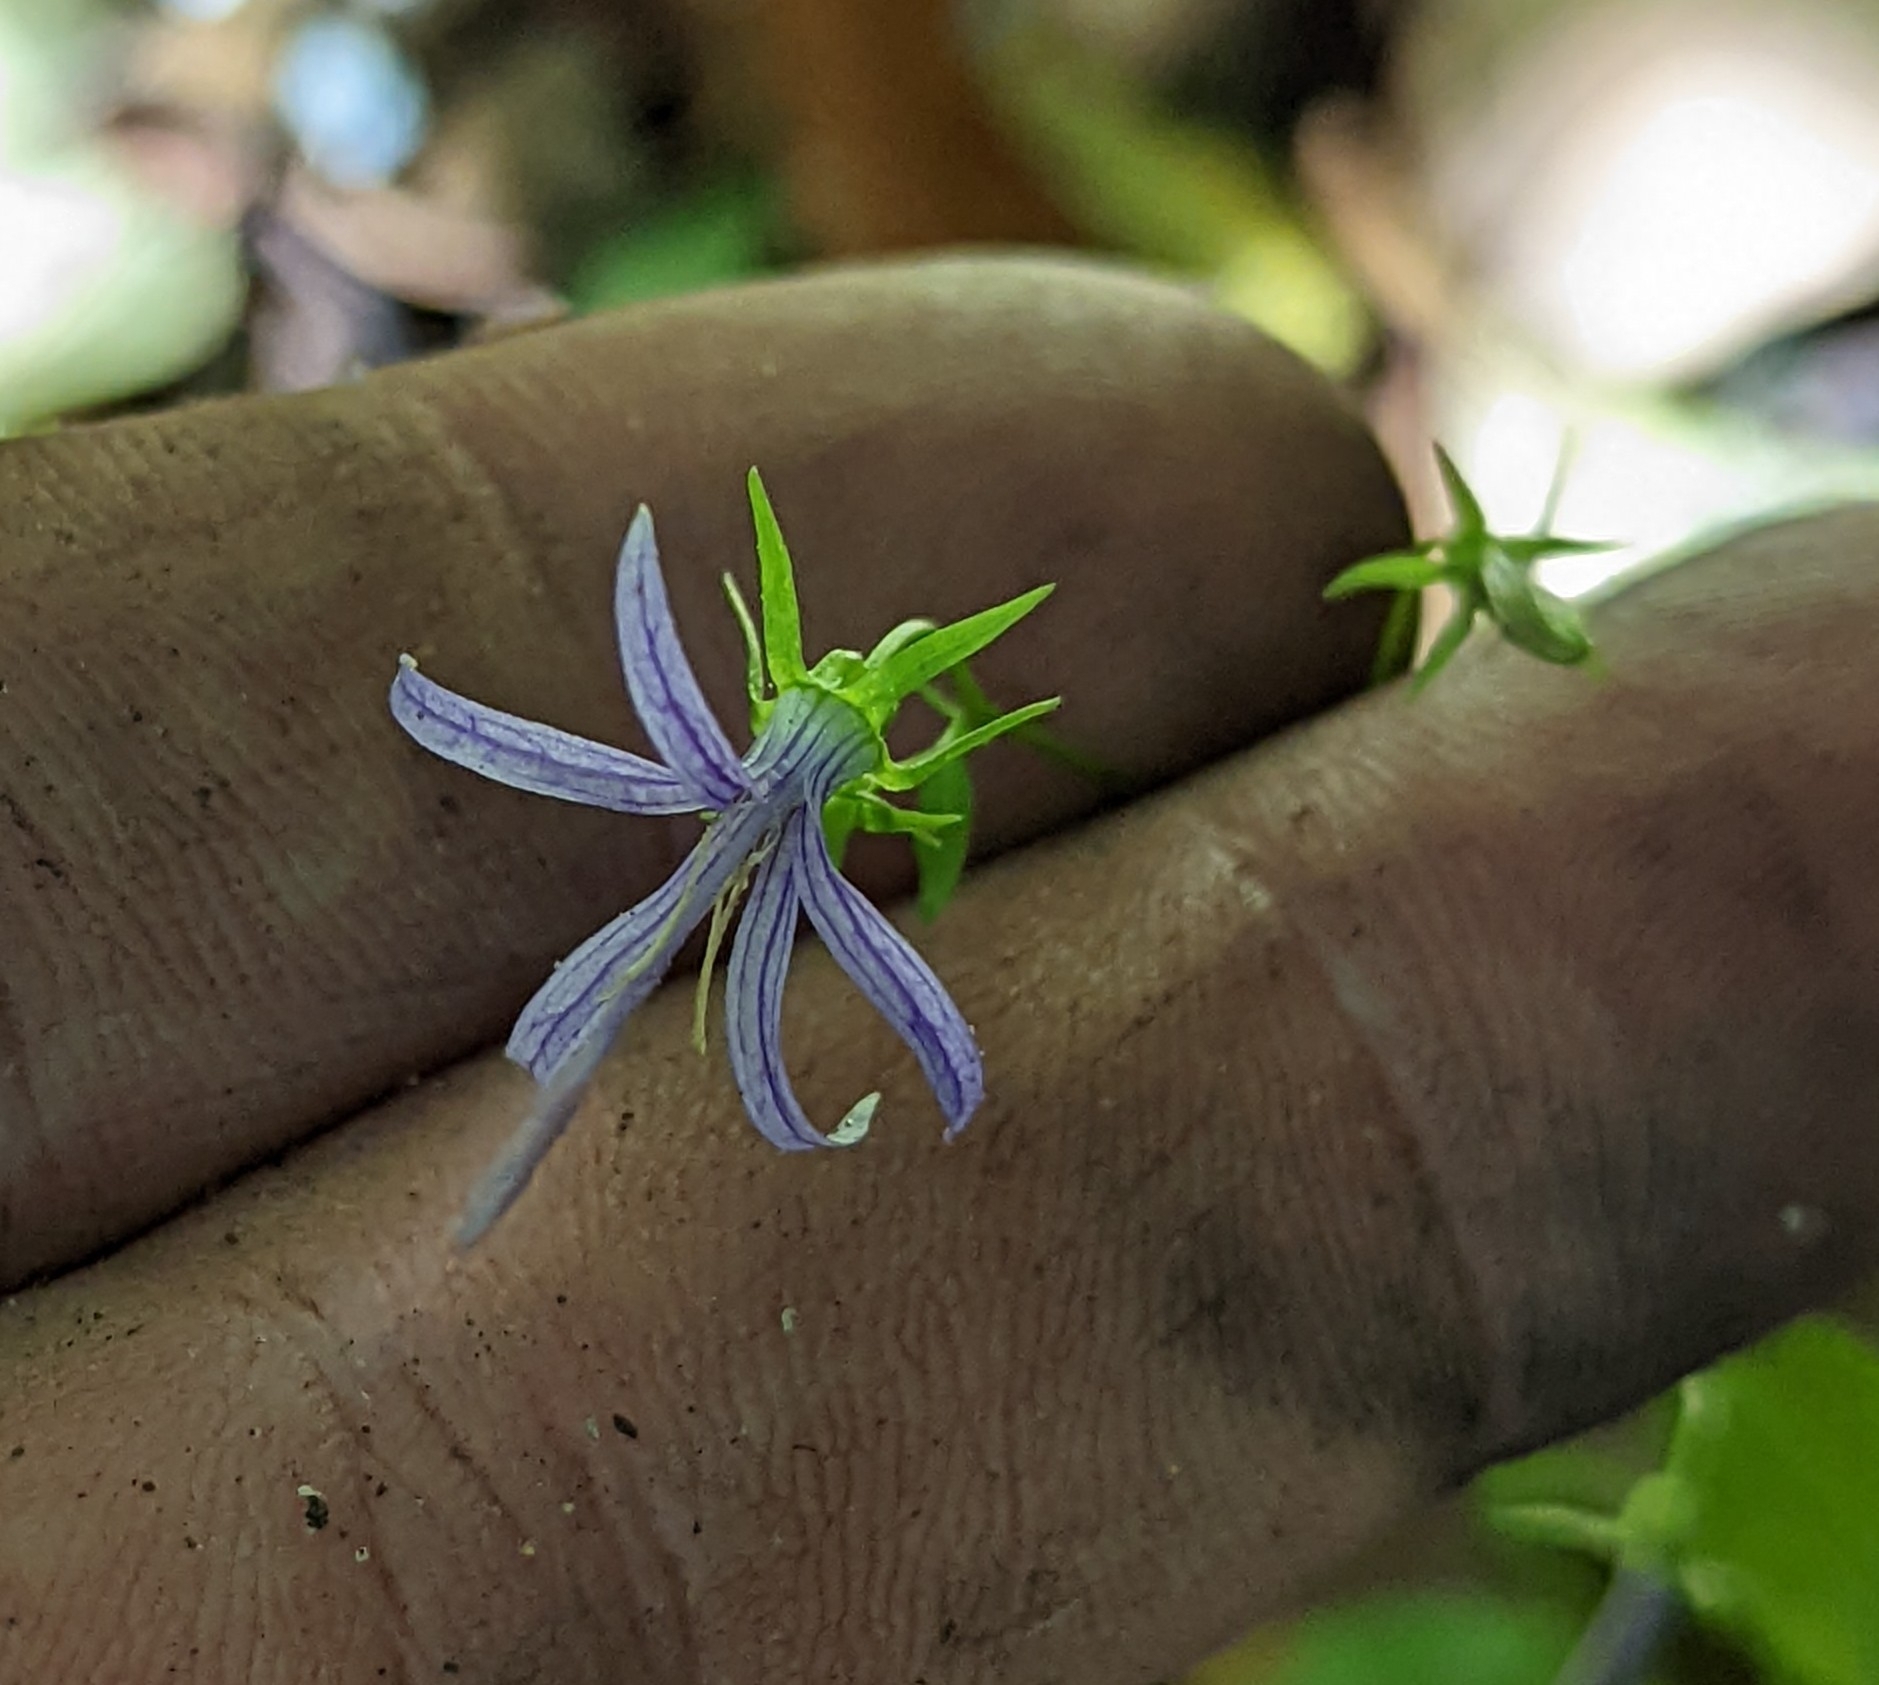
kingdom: Plantae
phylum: Tracheophyta
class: Magnoliopsida
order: Asterales
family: Campanulaceae
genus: Smithiastrum
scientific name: Smithiastrum prenanthoides
